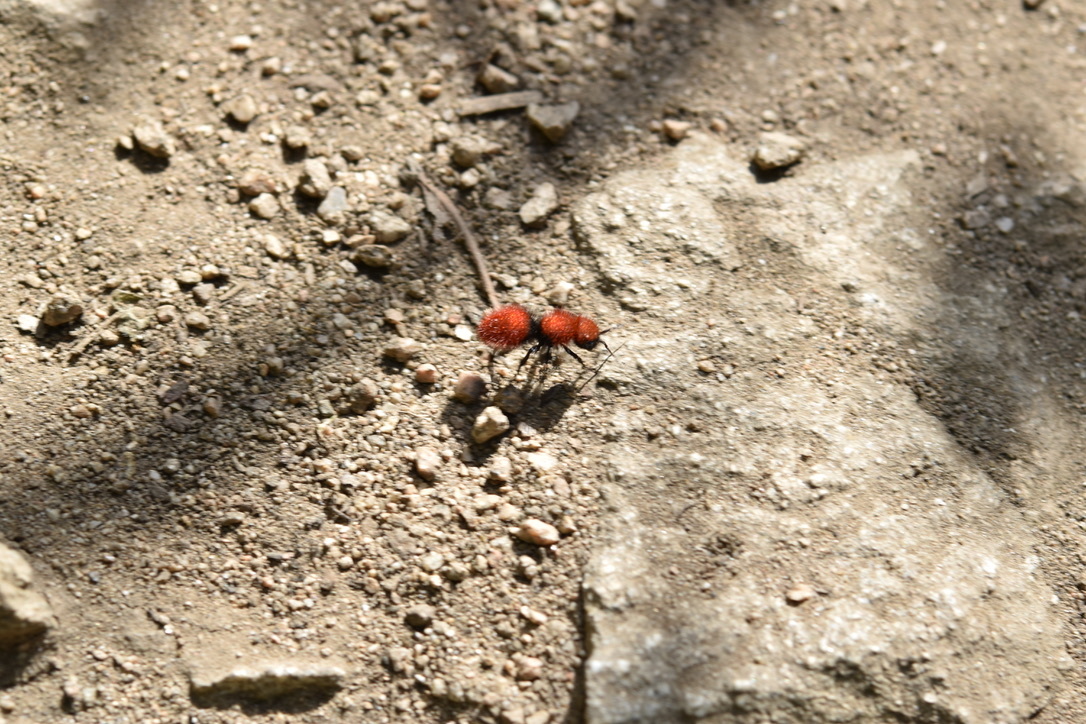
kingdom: Animalia
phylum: Arthropoda
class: Insecta
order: Hymenoptera
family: Mutillidae
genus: Dasymutilla
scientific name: Dasymutilla
